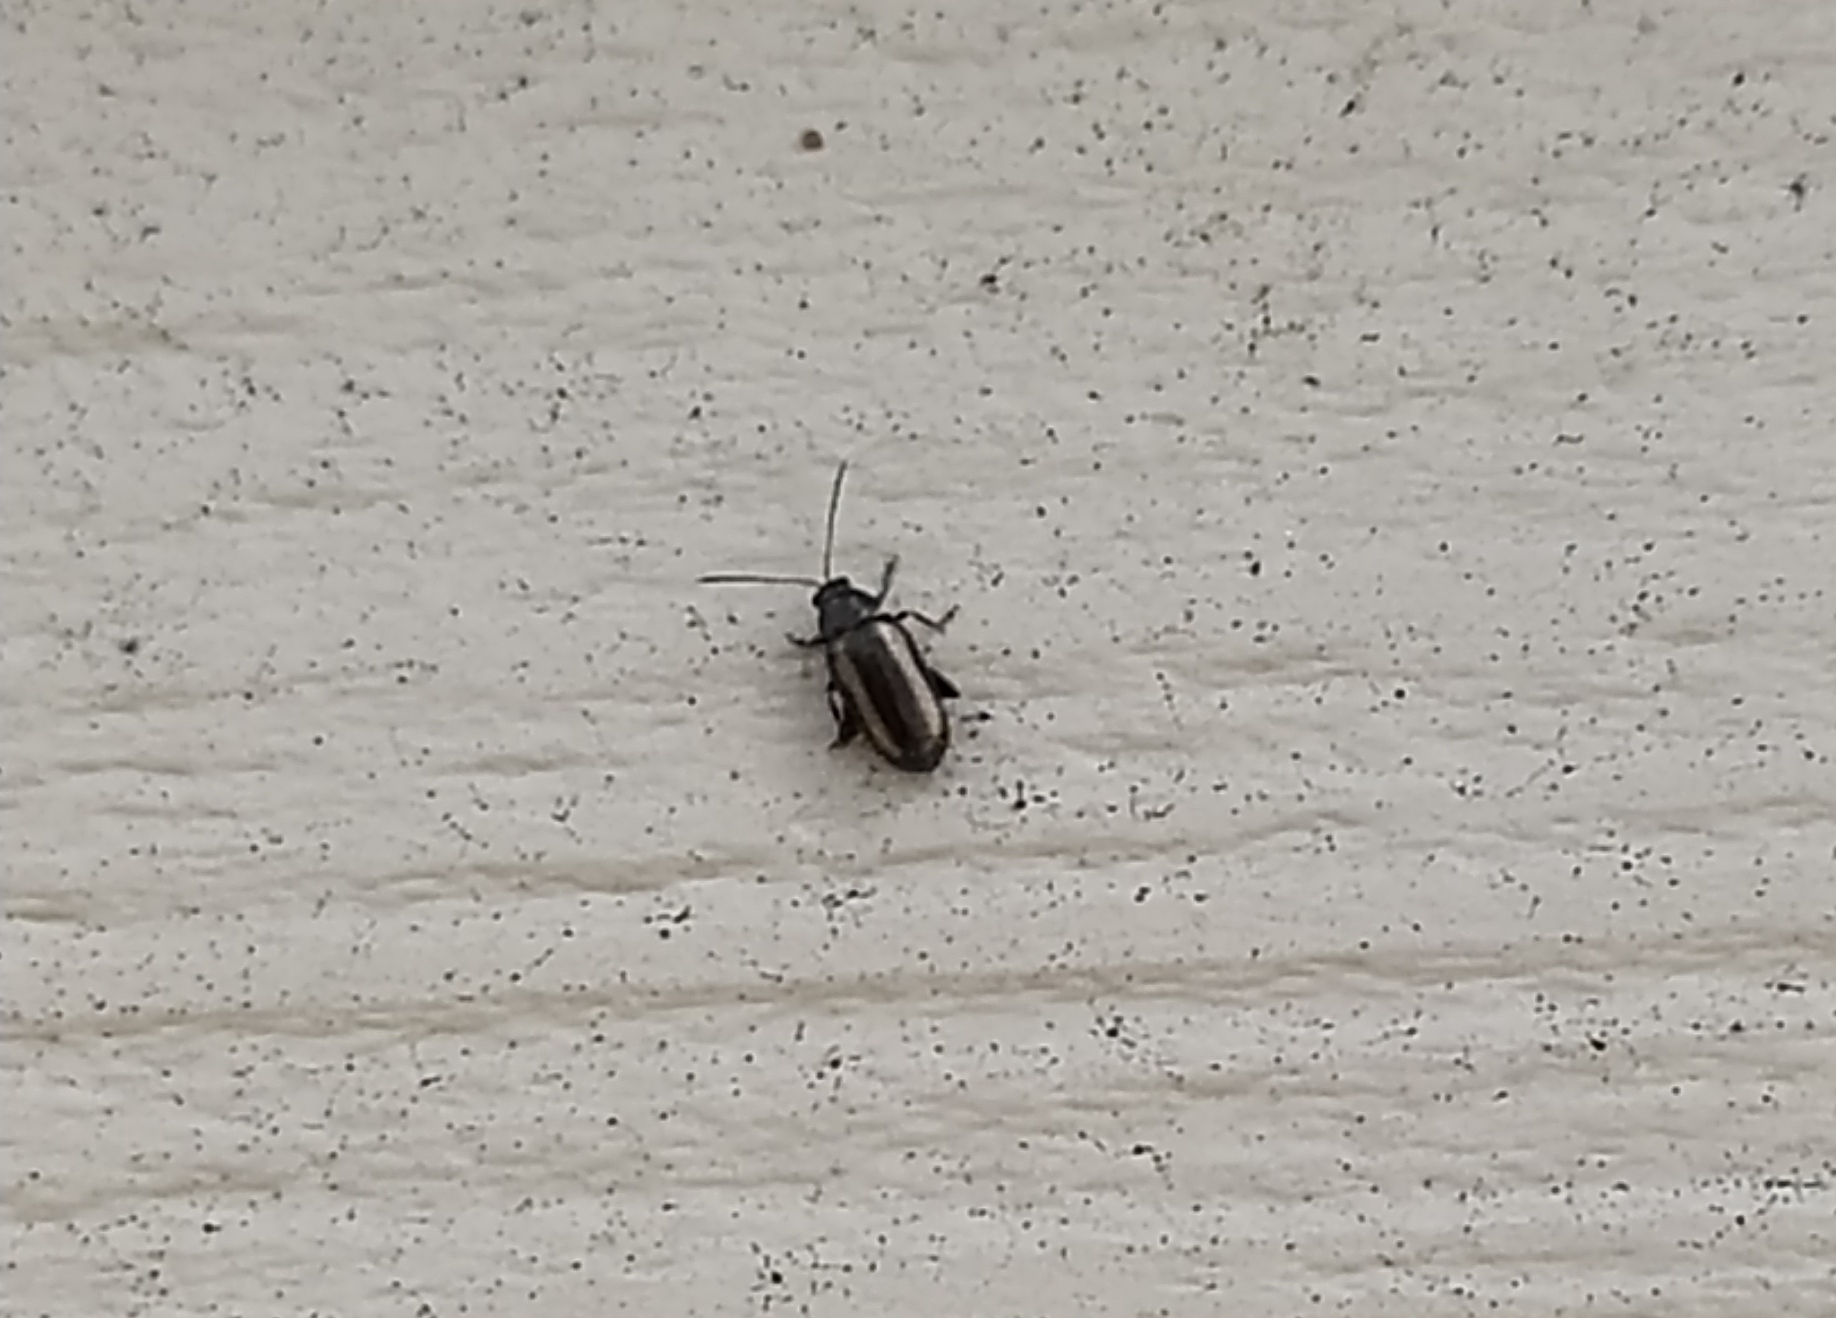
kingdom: Animalia
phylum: Arthropoda
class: Insecta
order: Coleoptera
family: Chrysomelidae
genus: Phyllotreta
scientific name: Phyllotreta vittula
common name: Barley flea beetle
